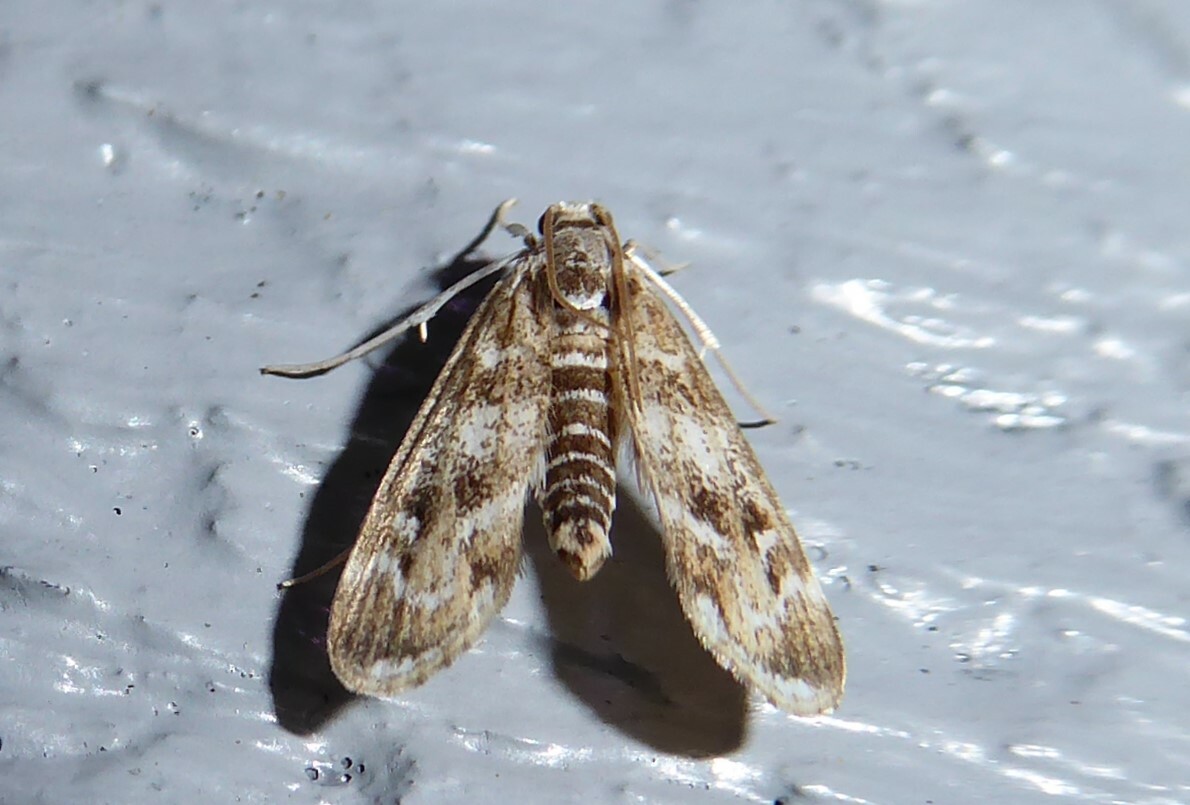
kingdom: Animalia
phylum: Arthropoda
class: Insecta
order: Lepidoptera
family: Crambidae
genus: Hygraula
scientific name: Hygraula nitens
